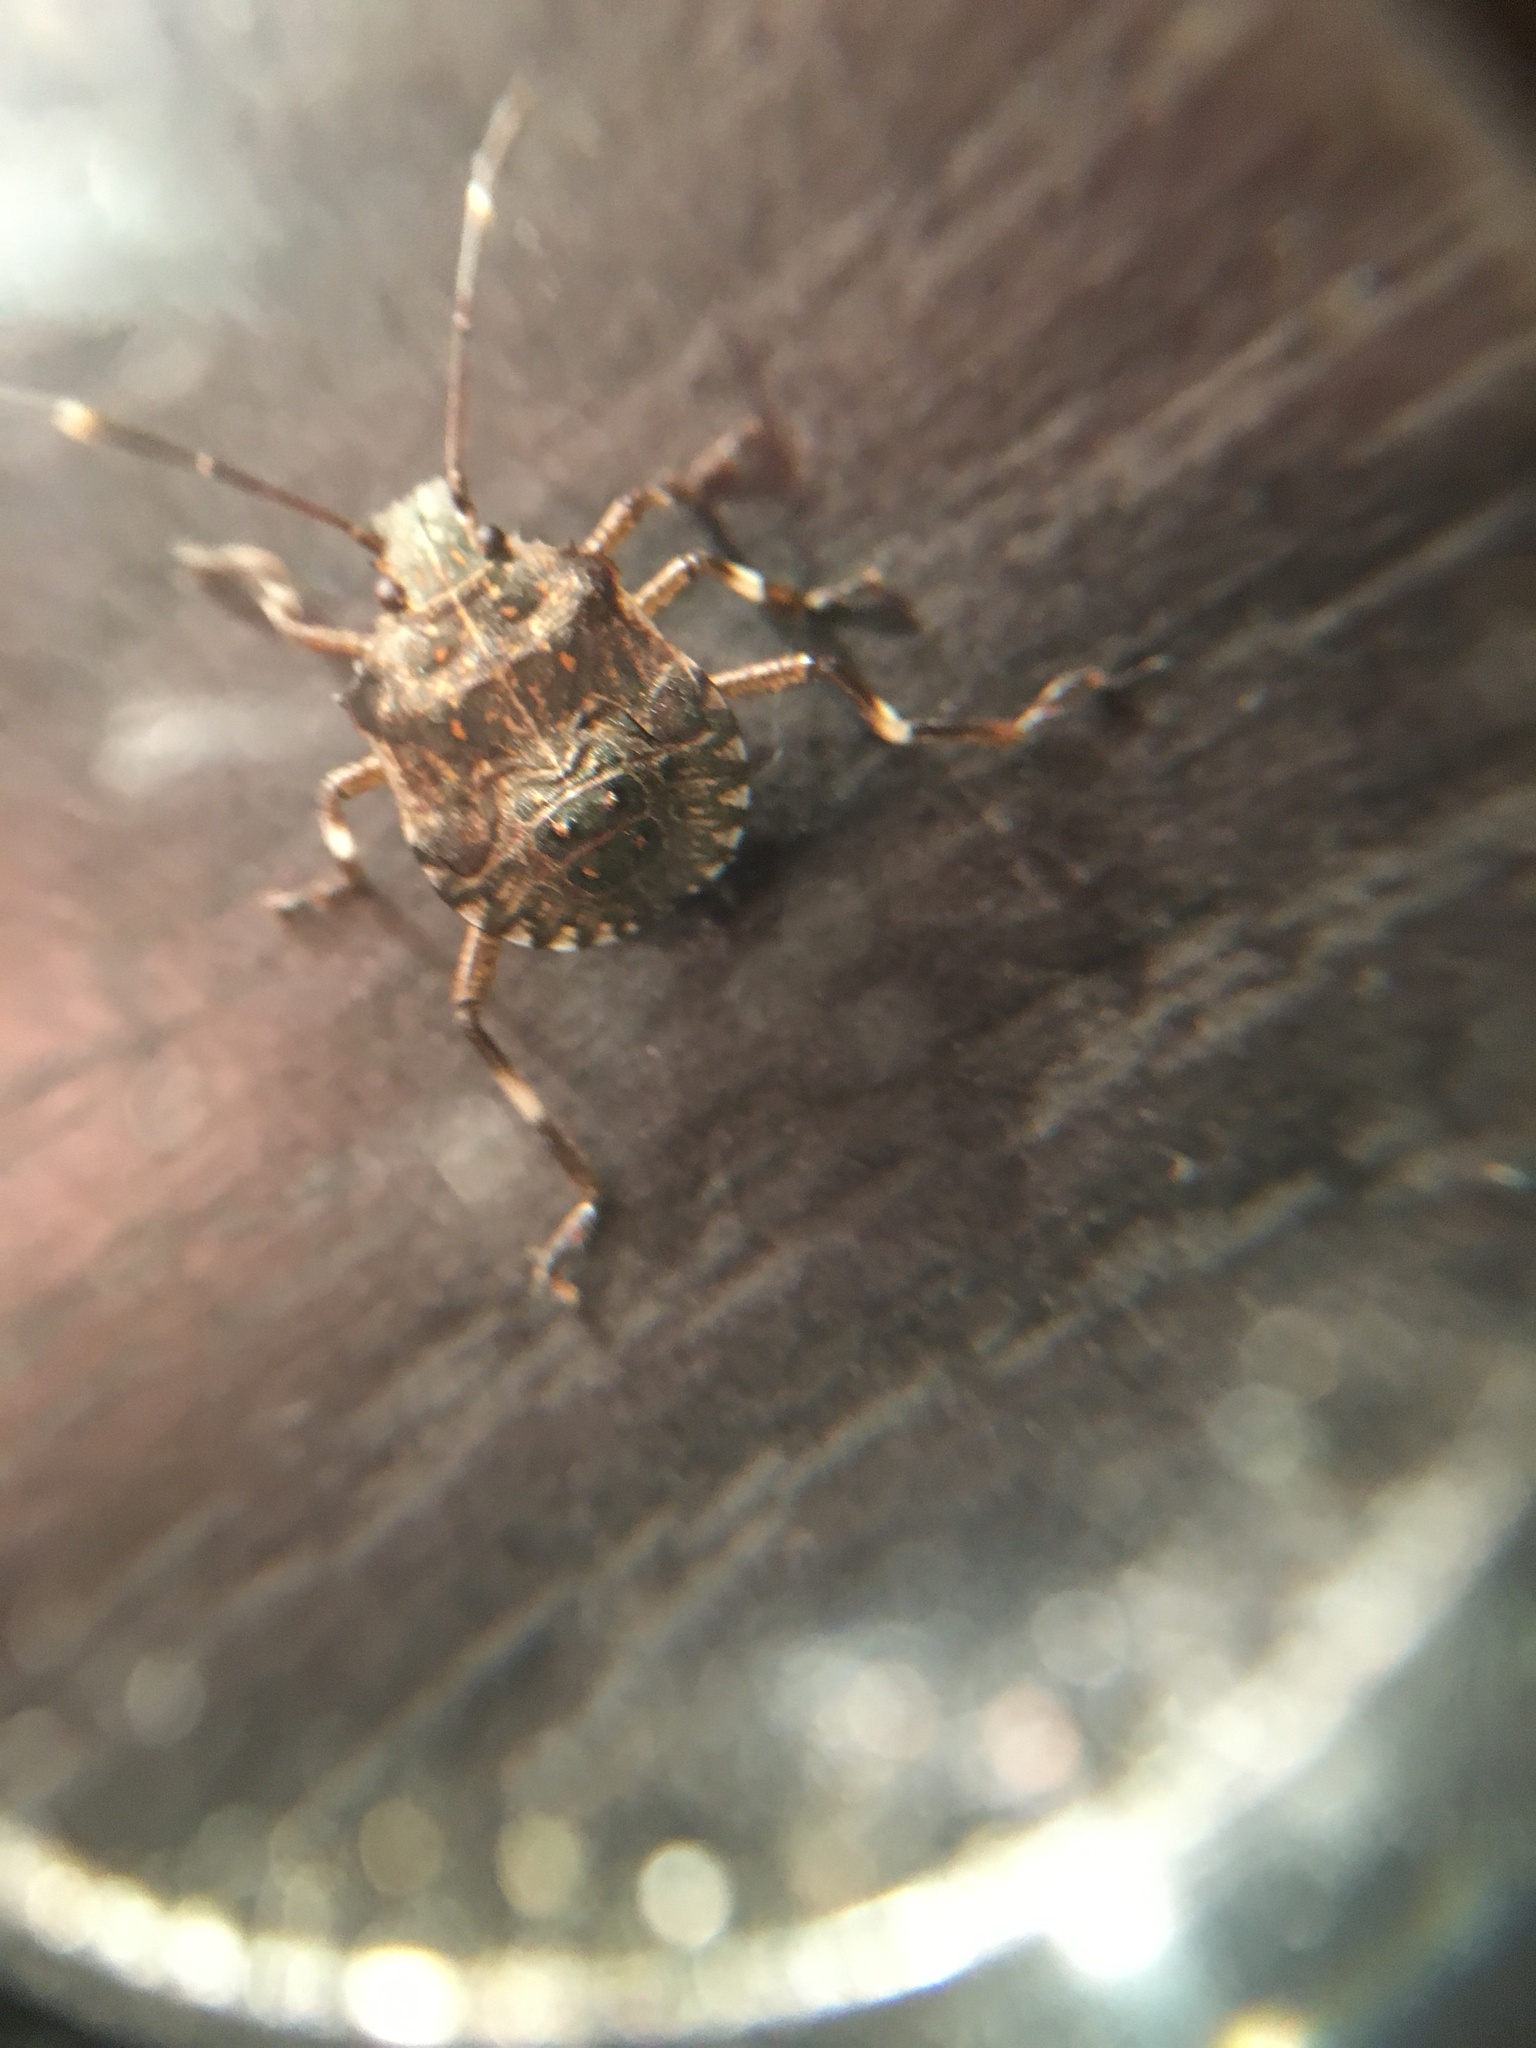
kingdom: Animalia
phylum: Arthropoda
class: Insecta
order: Hemiptera
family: Pentatomidae
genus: Halyomorpha
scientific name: Halyomorpha halys
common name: Brown marmorated stink bug
